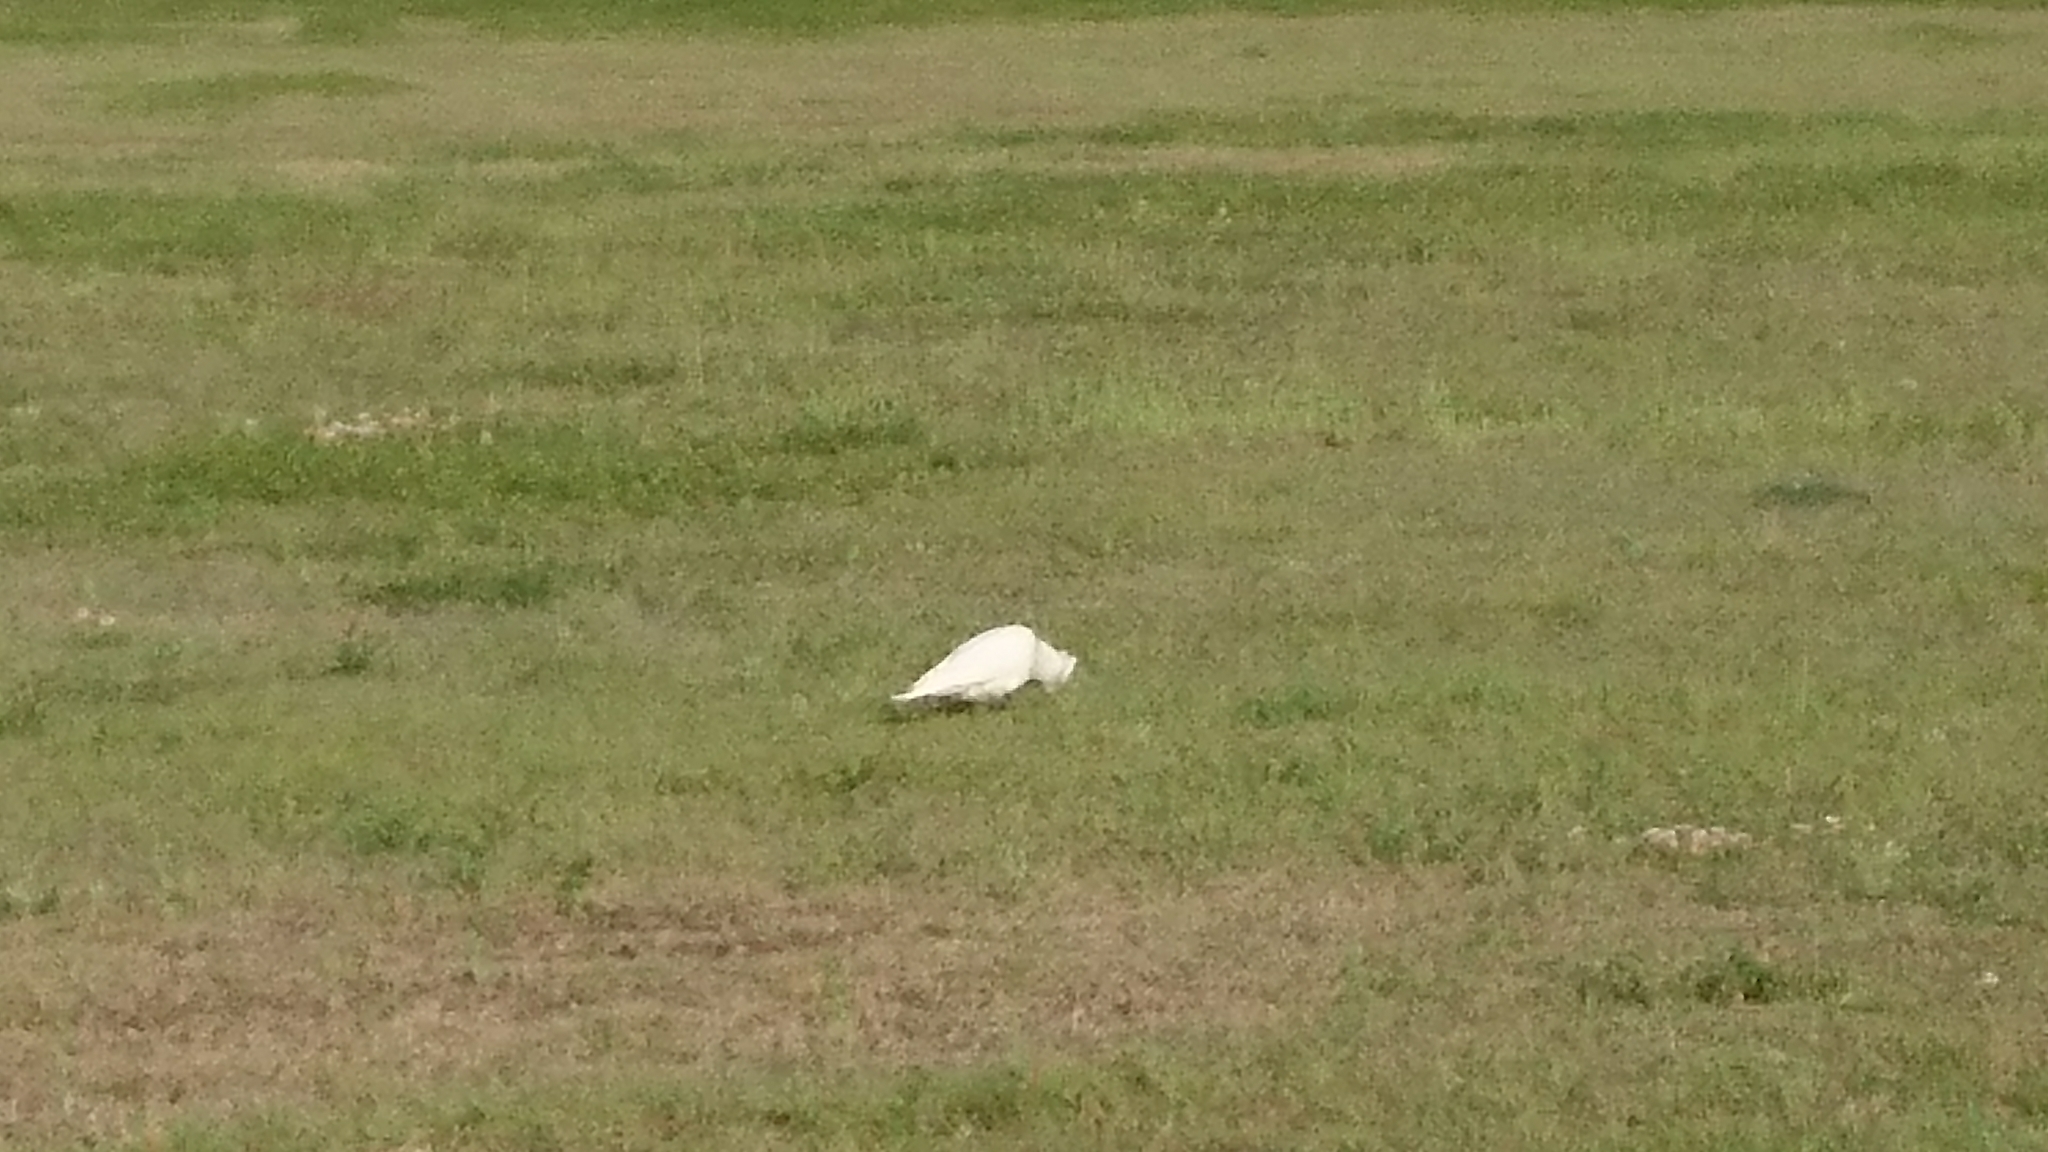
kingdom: Animalia
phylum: Chordata
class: Aves
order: Psittaciformes
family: Psittacidae
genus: Cacatua
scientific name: Cacatua sanguinea
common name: Little corella
